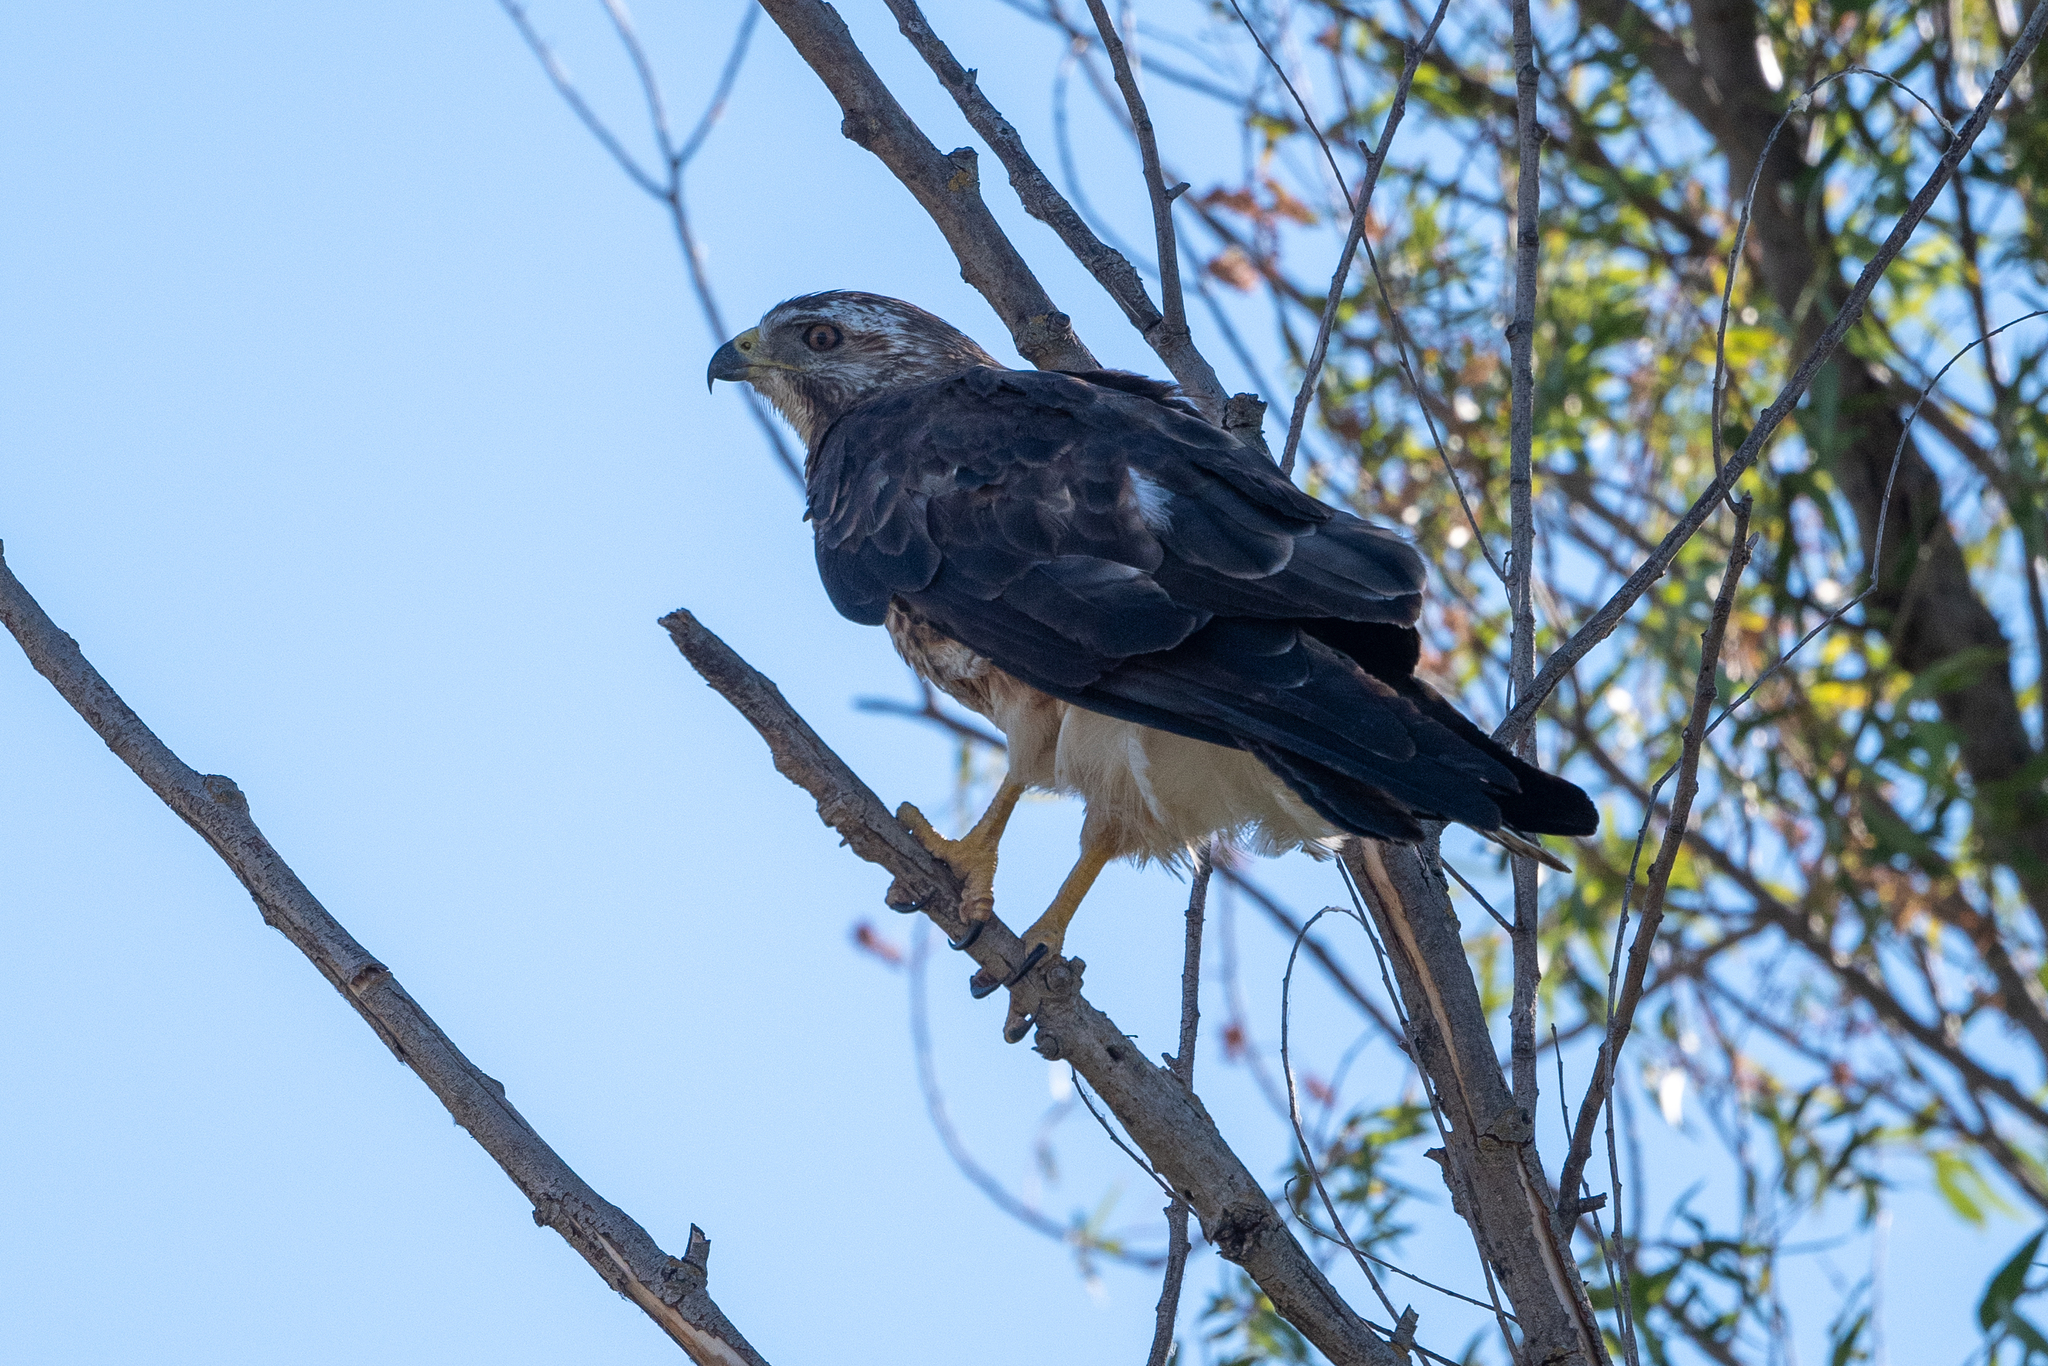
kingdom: Animalia
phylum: Chordata
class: Aves
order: Accipitriformes
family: Accipitridae
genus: Buteo
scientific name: Buteo swainsoni
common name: Swainson's hawk
